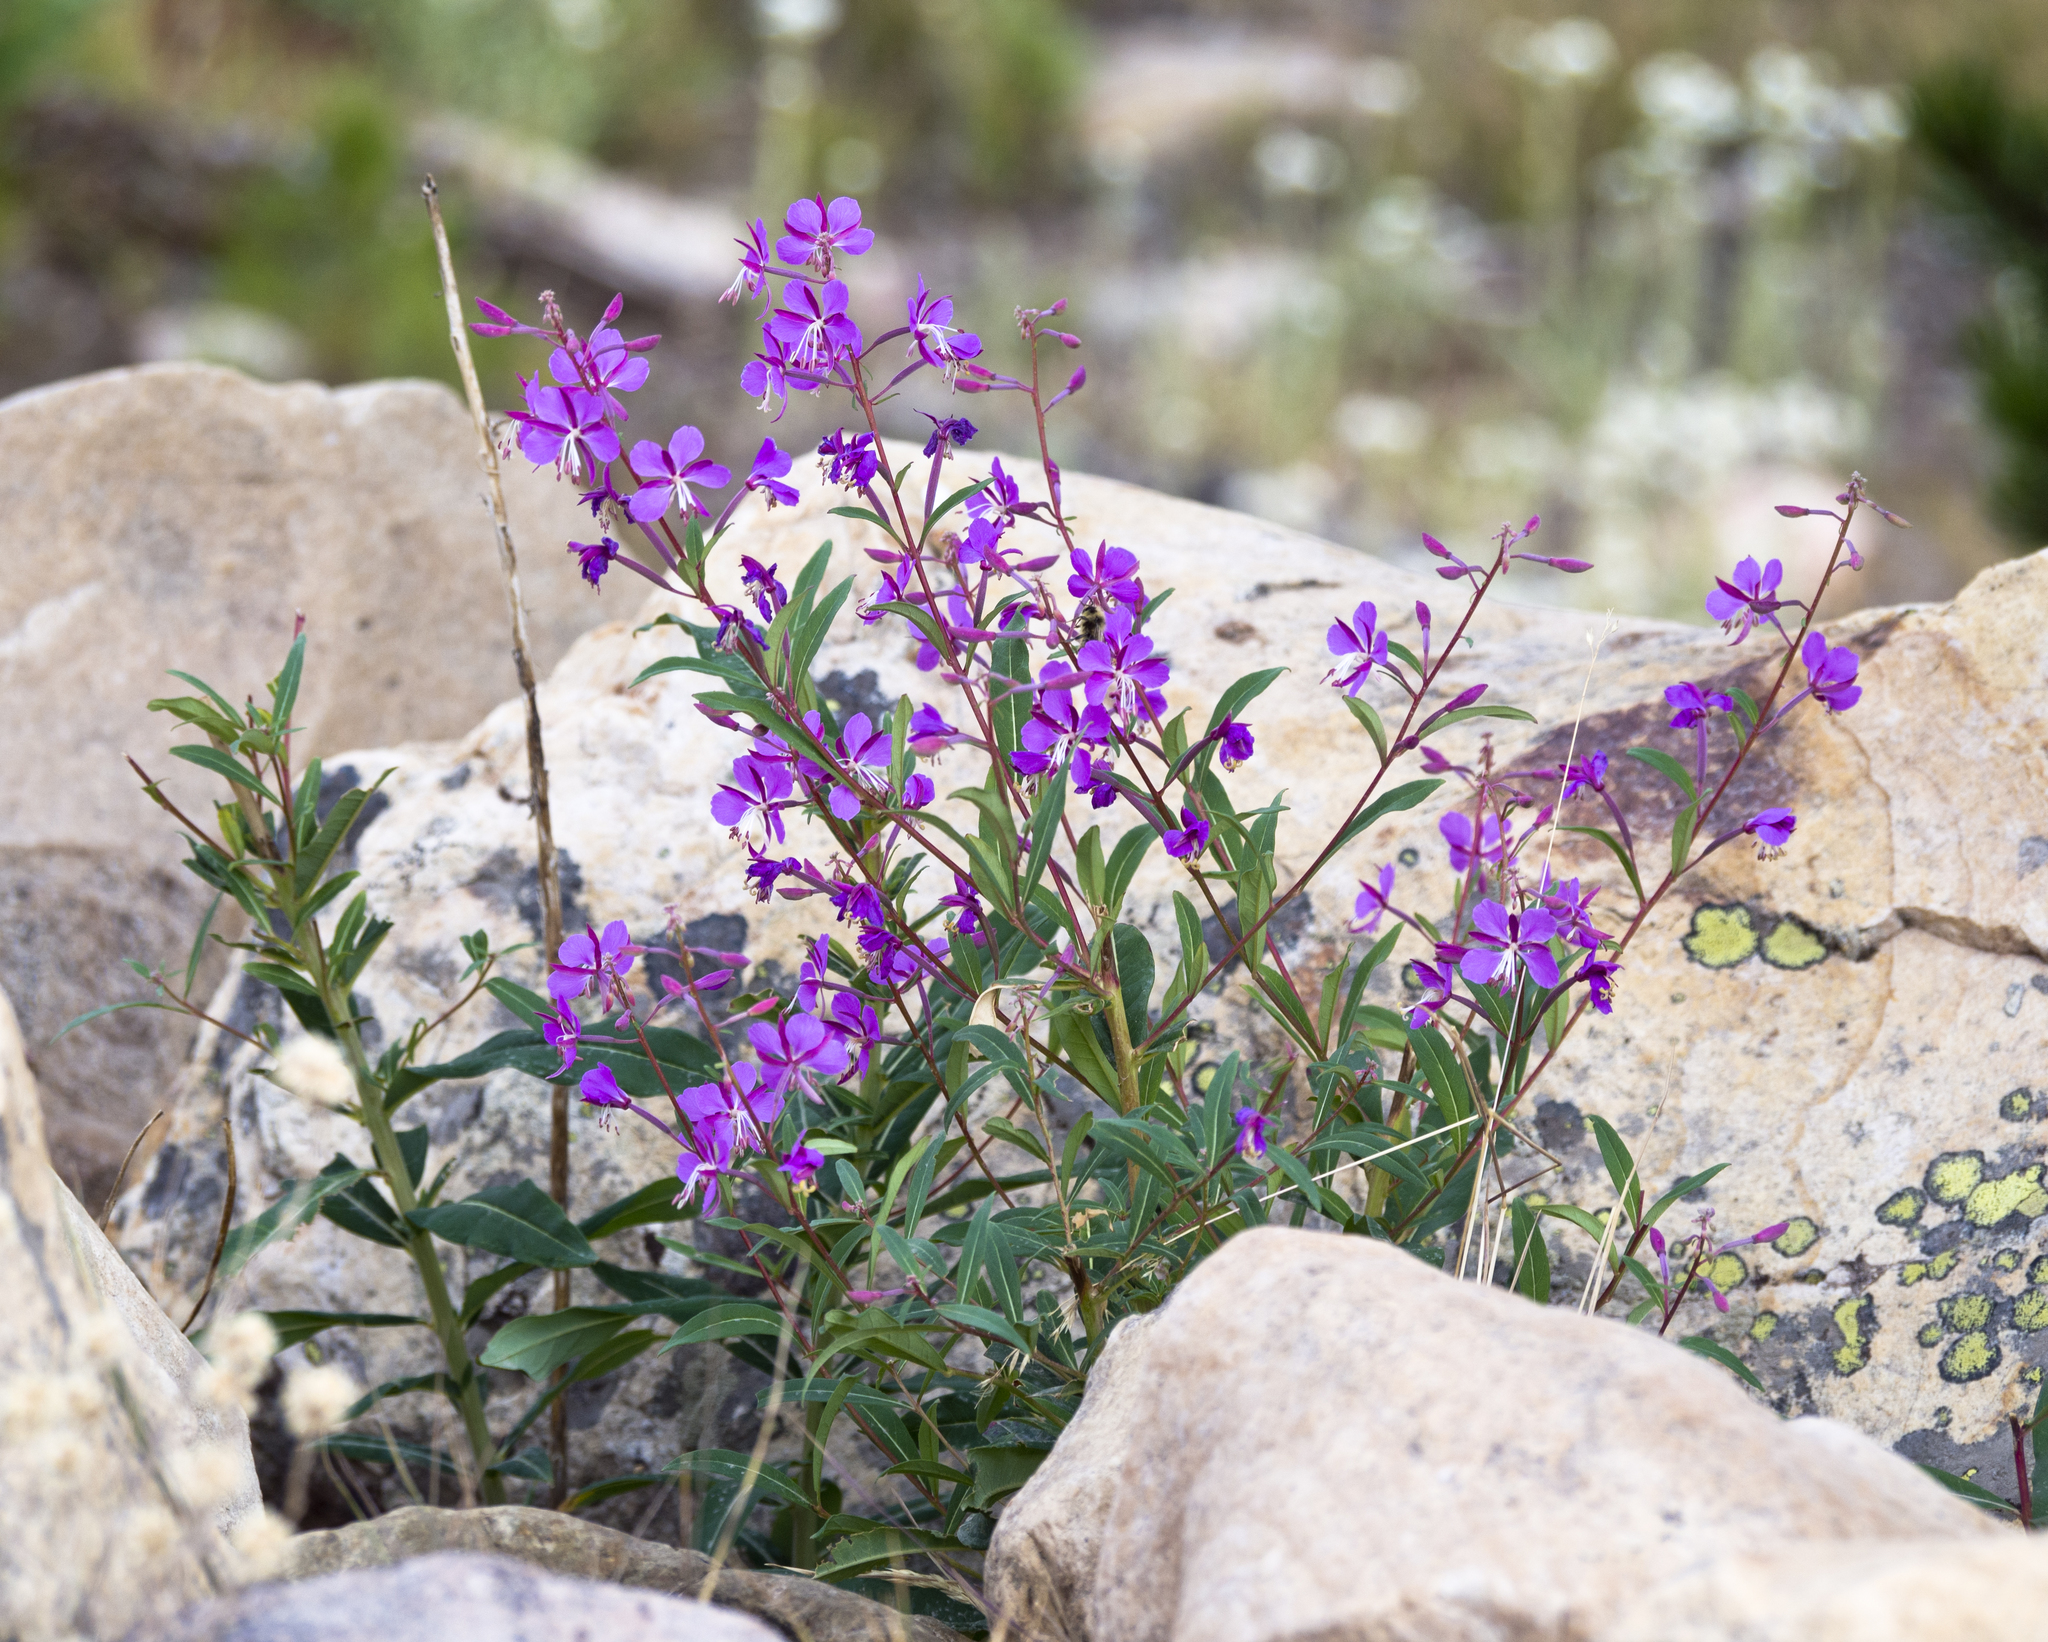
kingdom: Plantae
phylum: Tracheophyta
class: Magnoliopsida
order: Myrtales
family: Onagraceae
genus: Chamaenerion
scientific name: Chamaenerion angustifolium
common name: Fireweed
